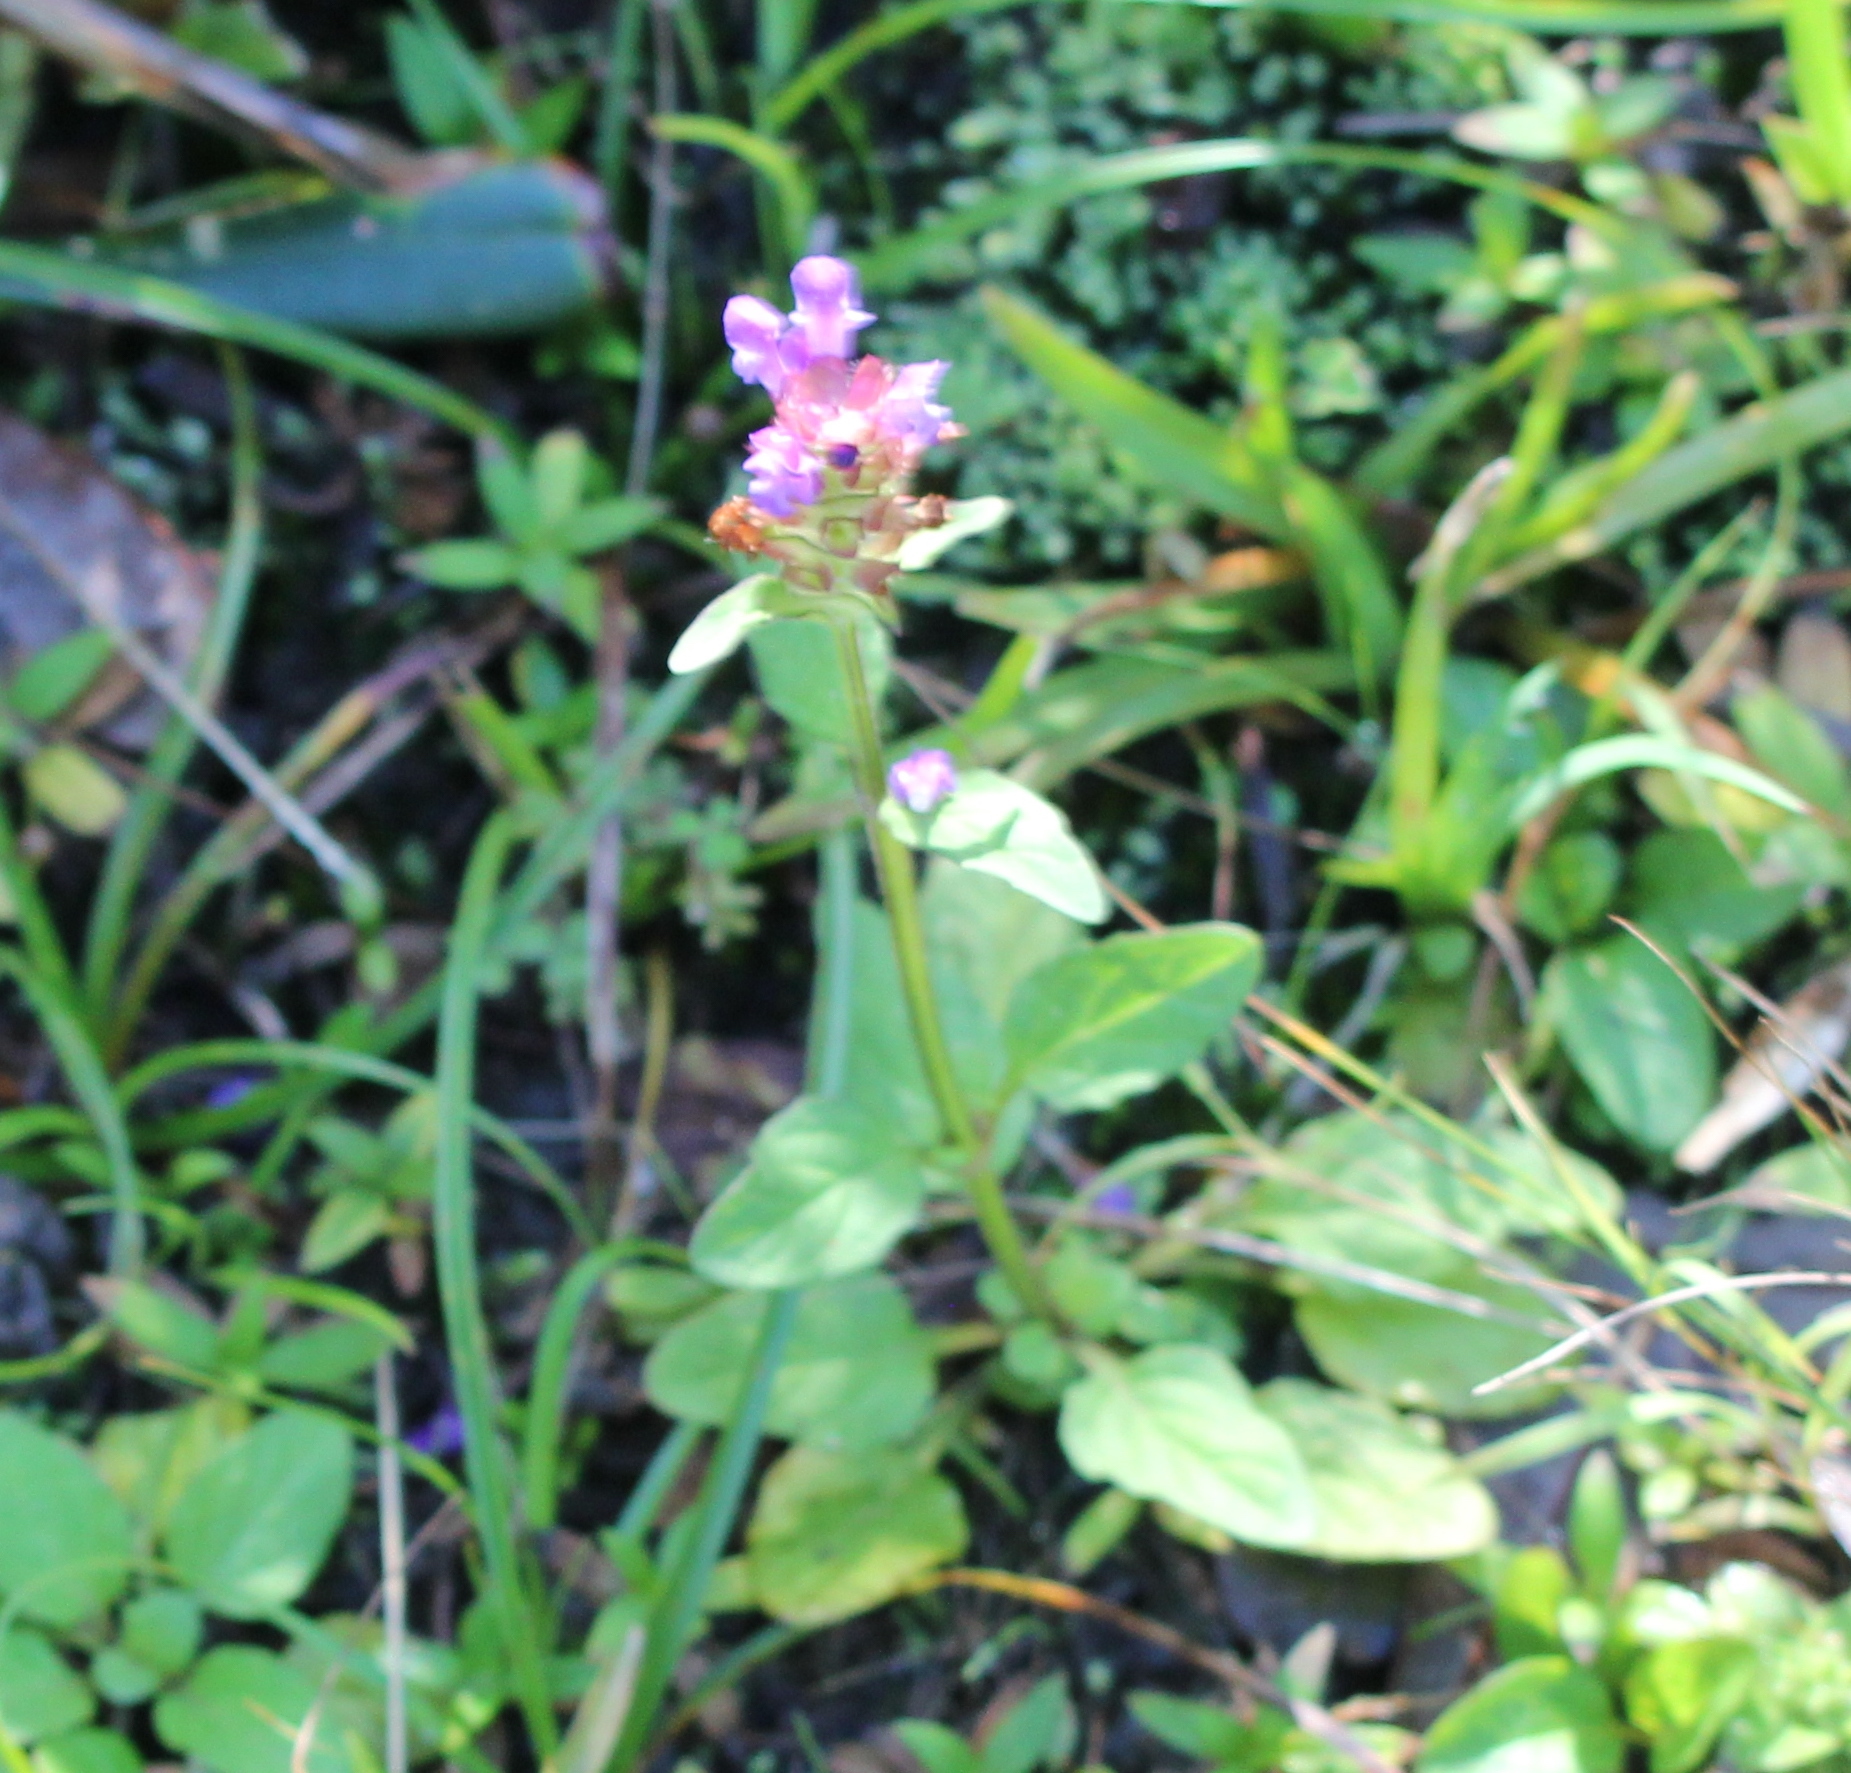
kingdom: Plantae
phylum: Tracheophyta
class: Magnoliopsida
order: Lamiales
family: Lamiaceae
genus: Prunella
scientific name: Prunella vulgaris
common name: Heal-all
